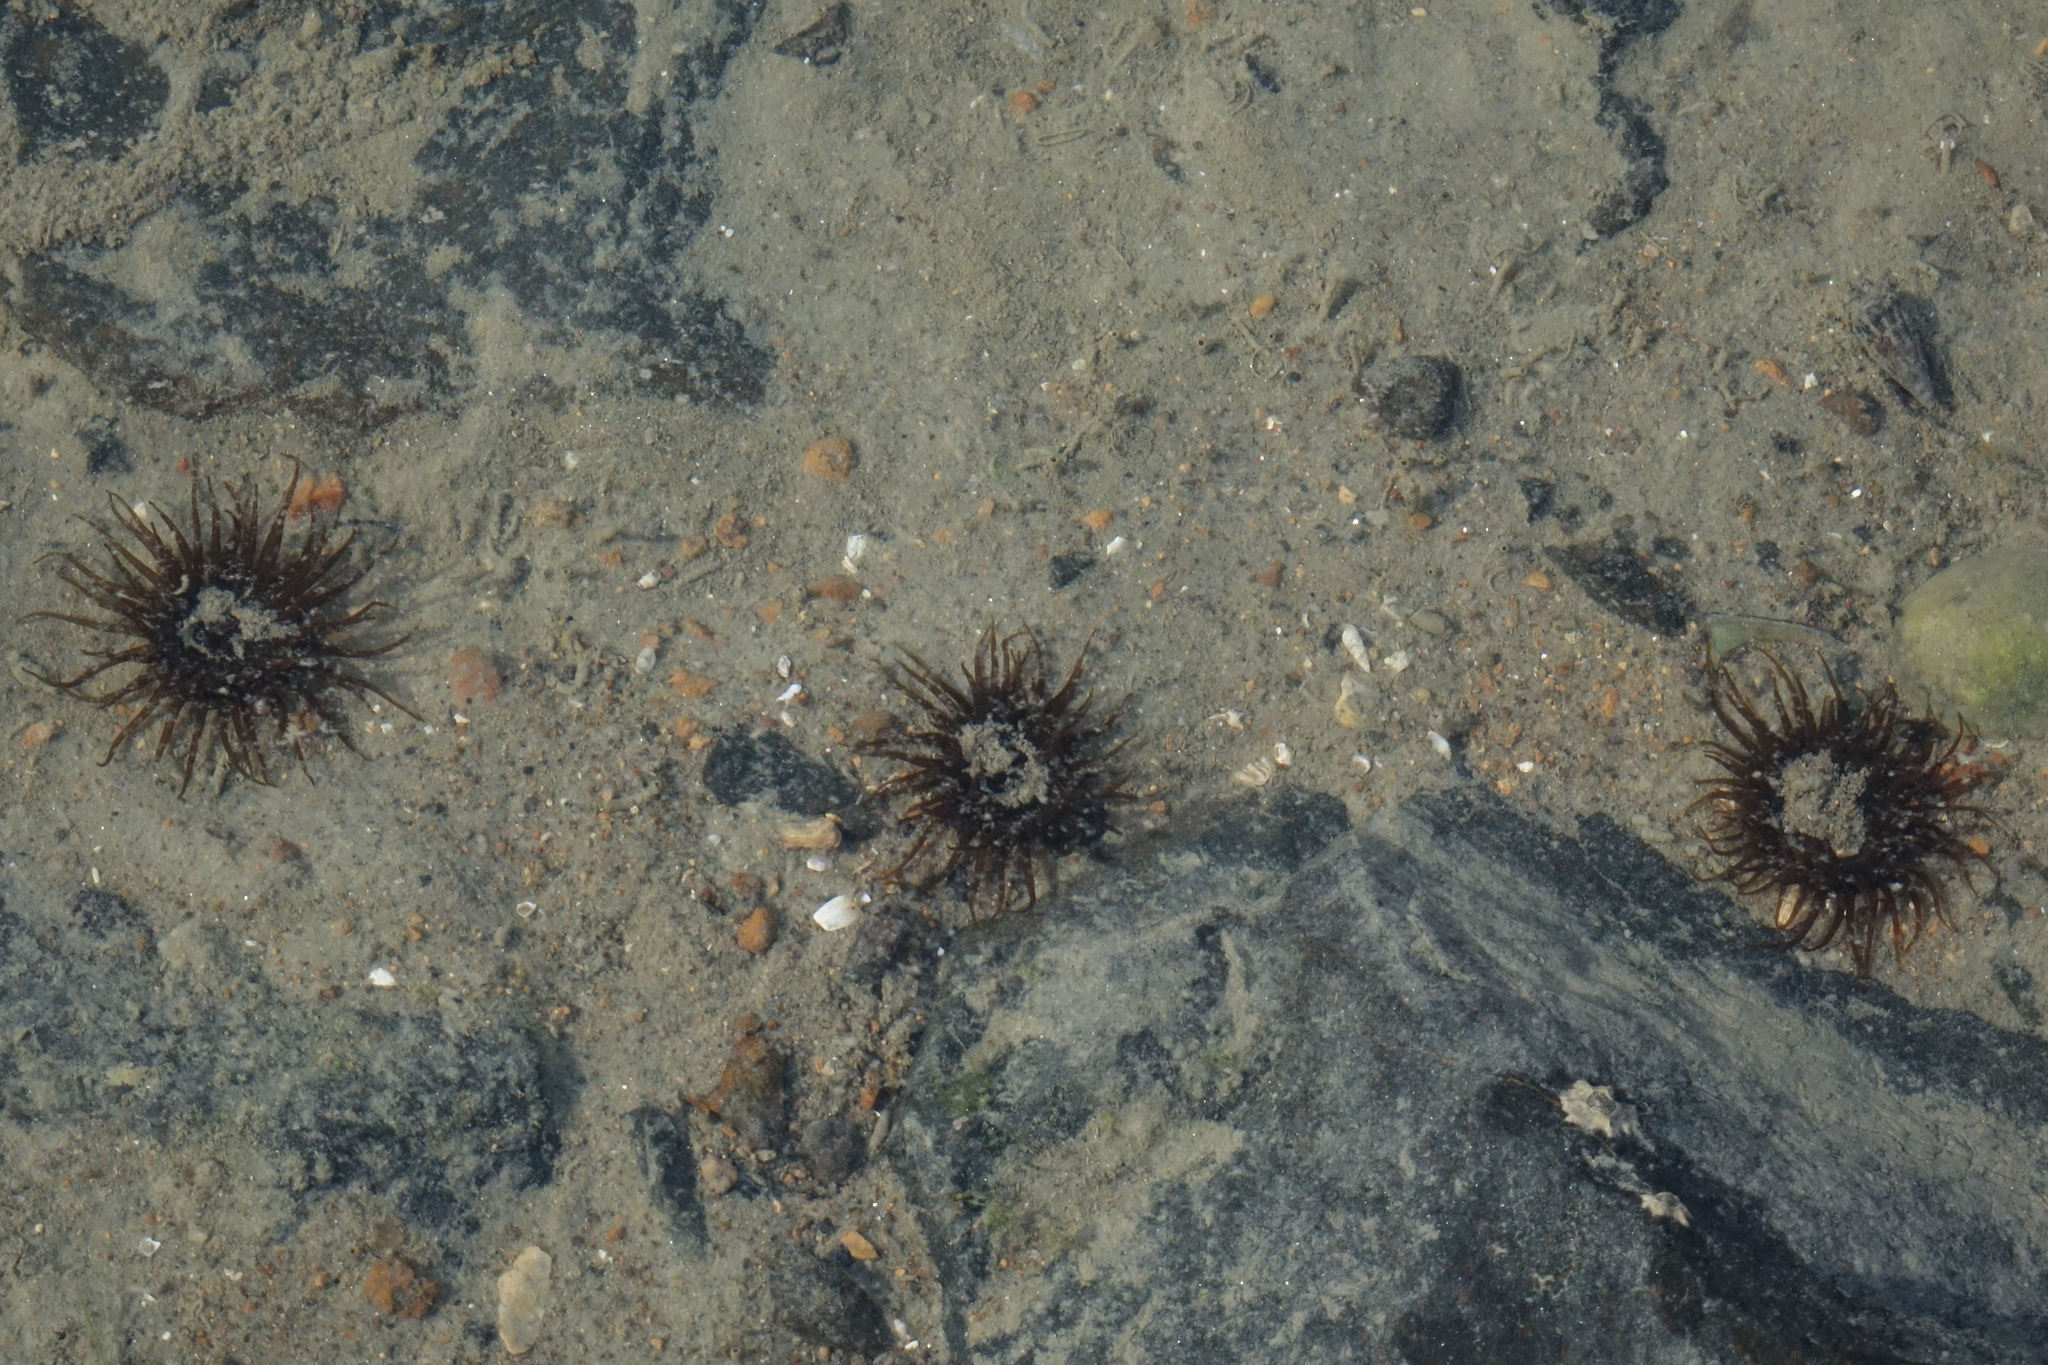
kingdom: Animalia
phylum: Cnidaria
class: Anthozoa
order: Actiniaria
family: Actiniidae
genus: Isactinia
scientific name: Isactinia olivacea
